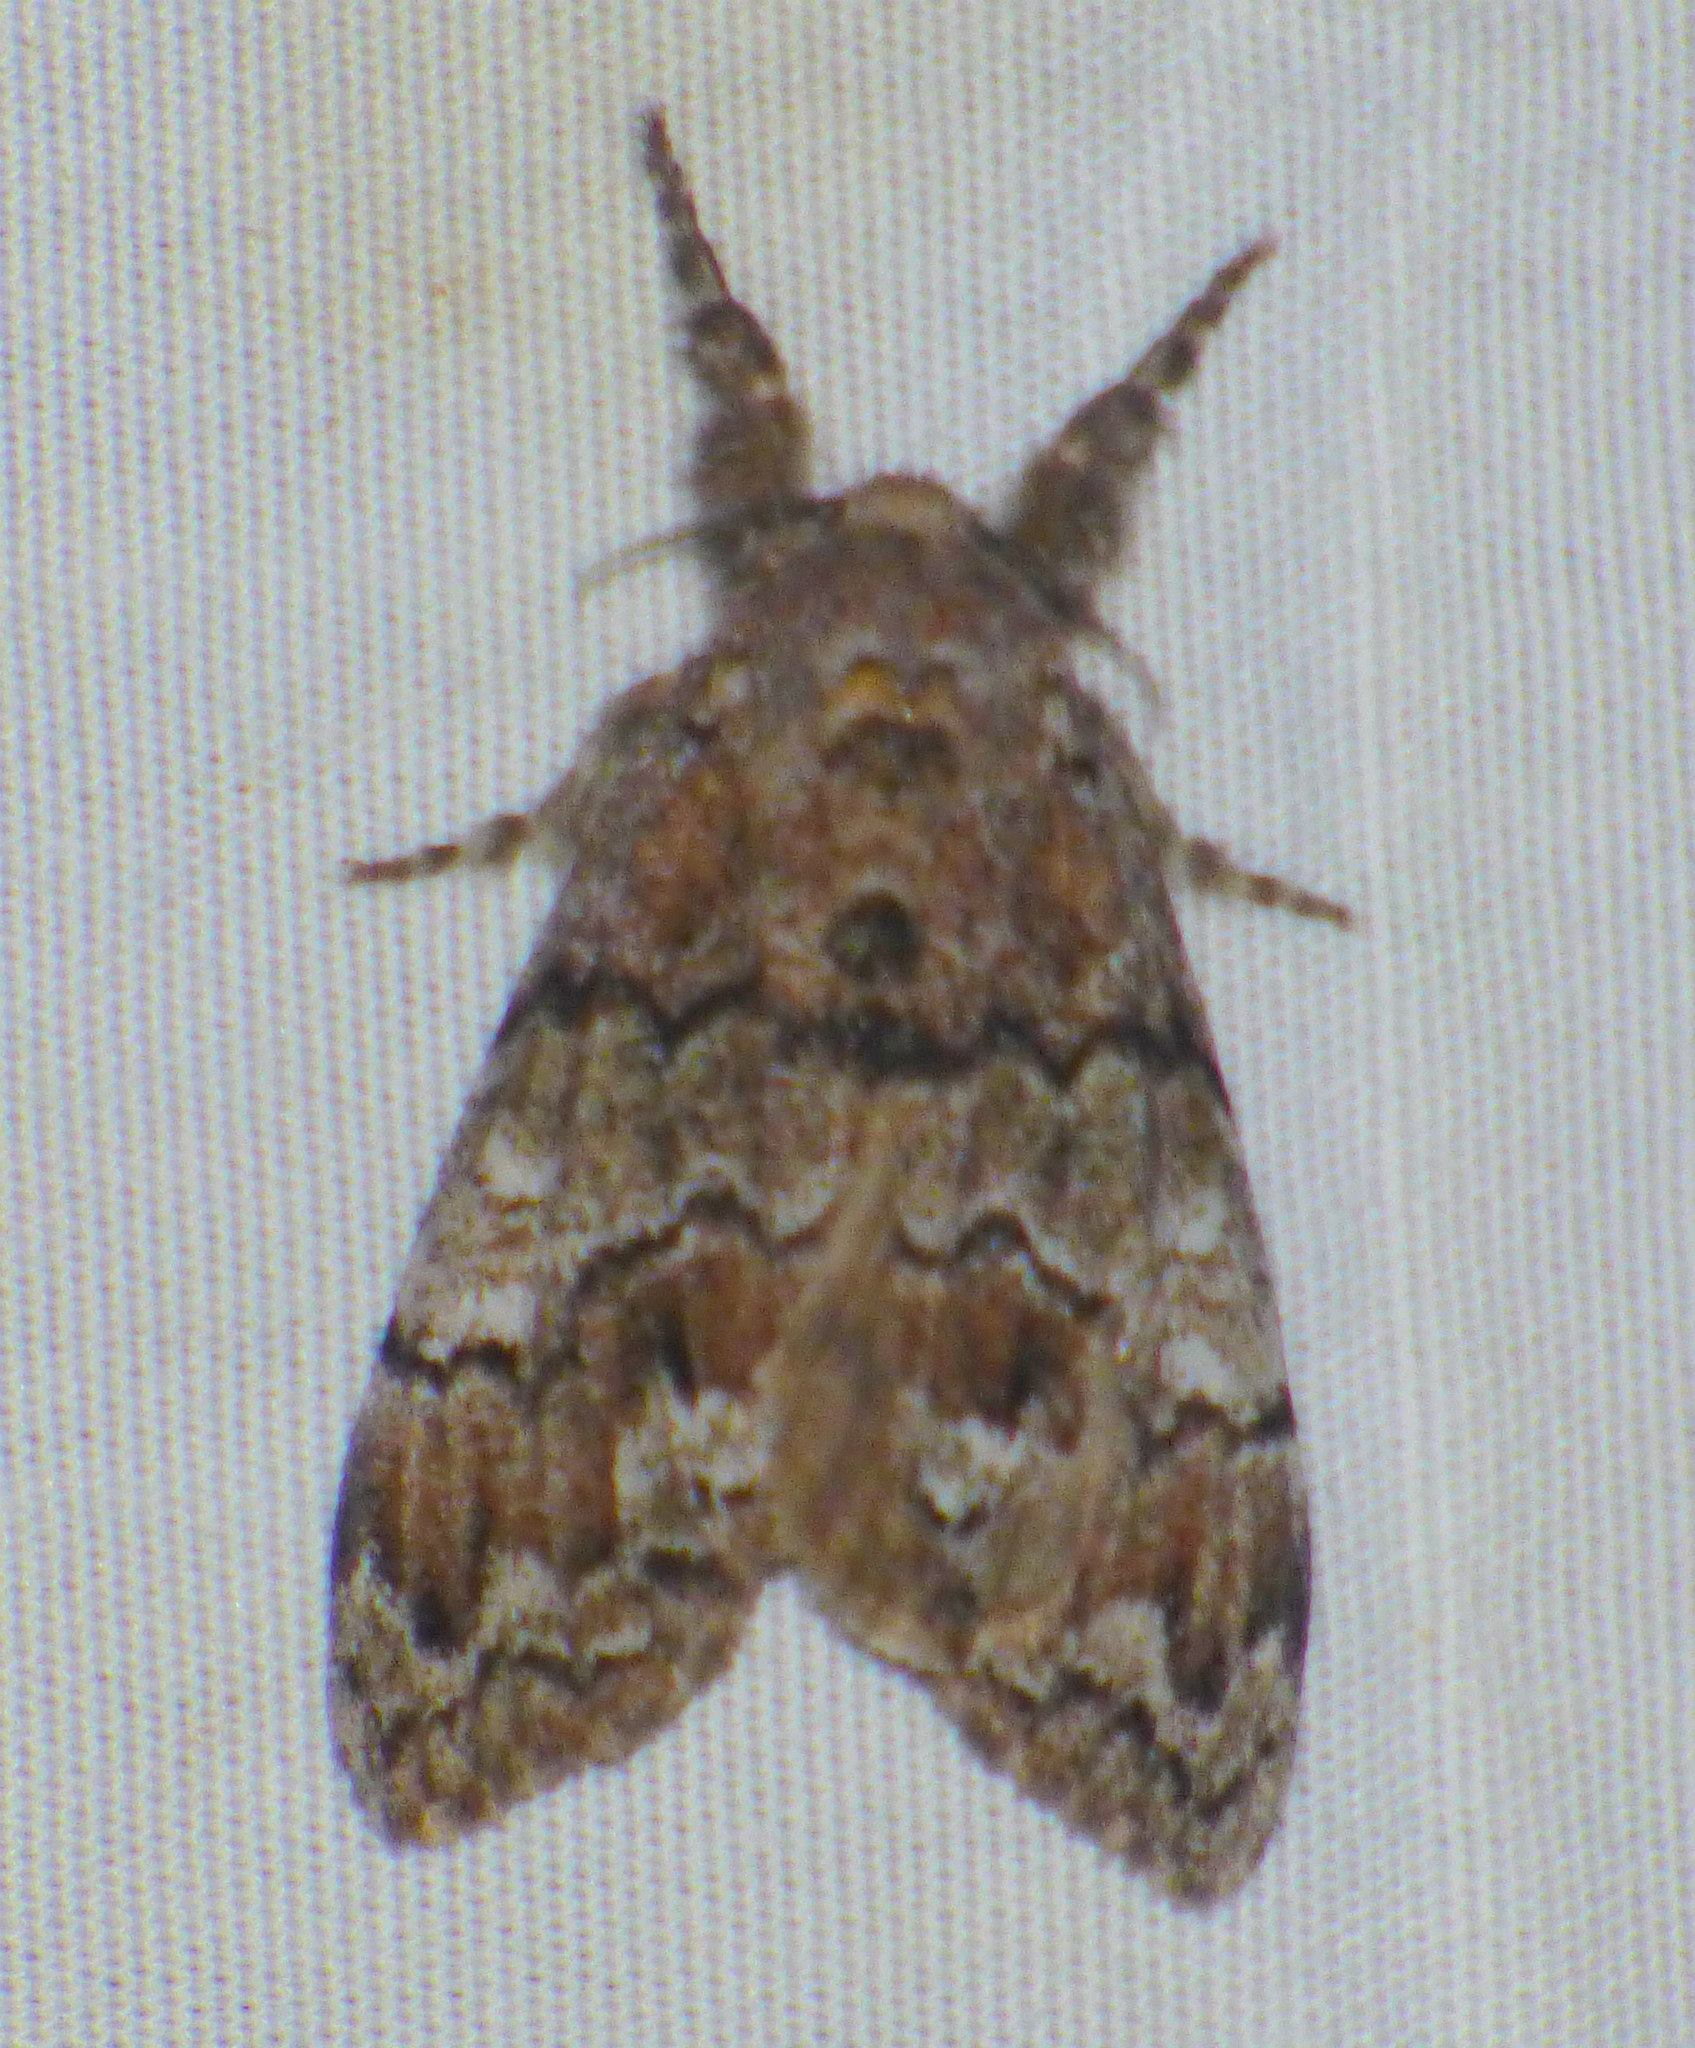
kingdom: Animalia
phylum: Arthropoda
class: Insecta
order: Lepidoptera
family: Erebidae
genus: Dasychira
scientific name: Dasychira manto
